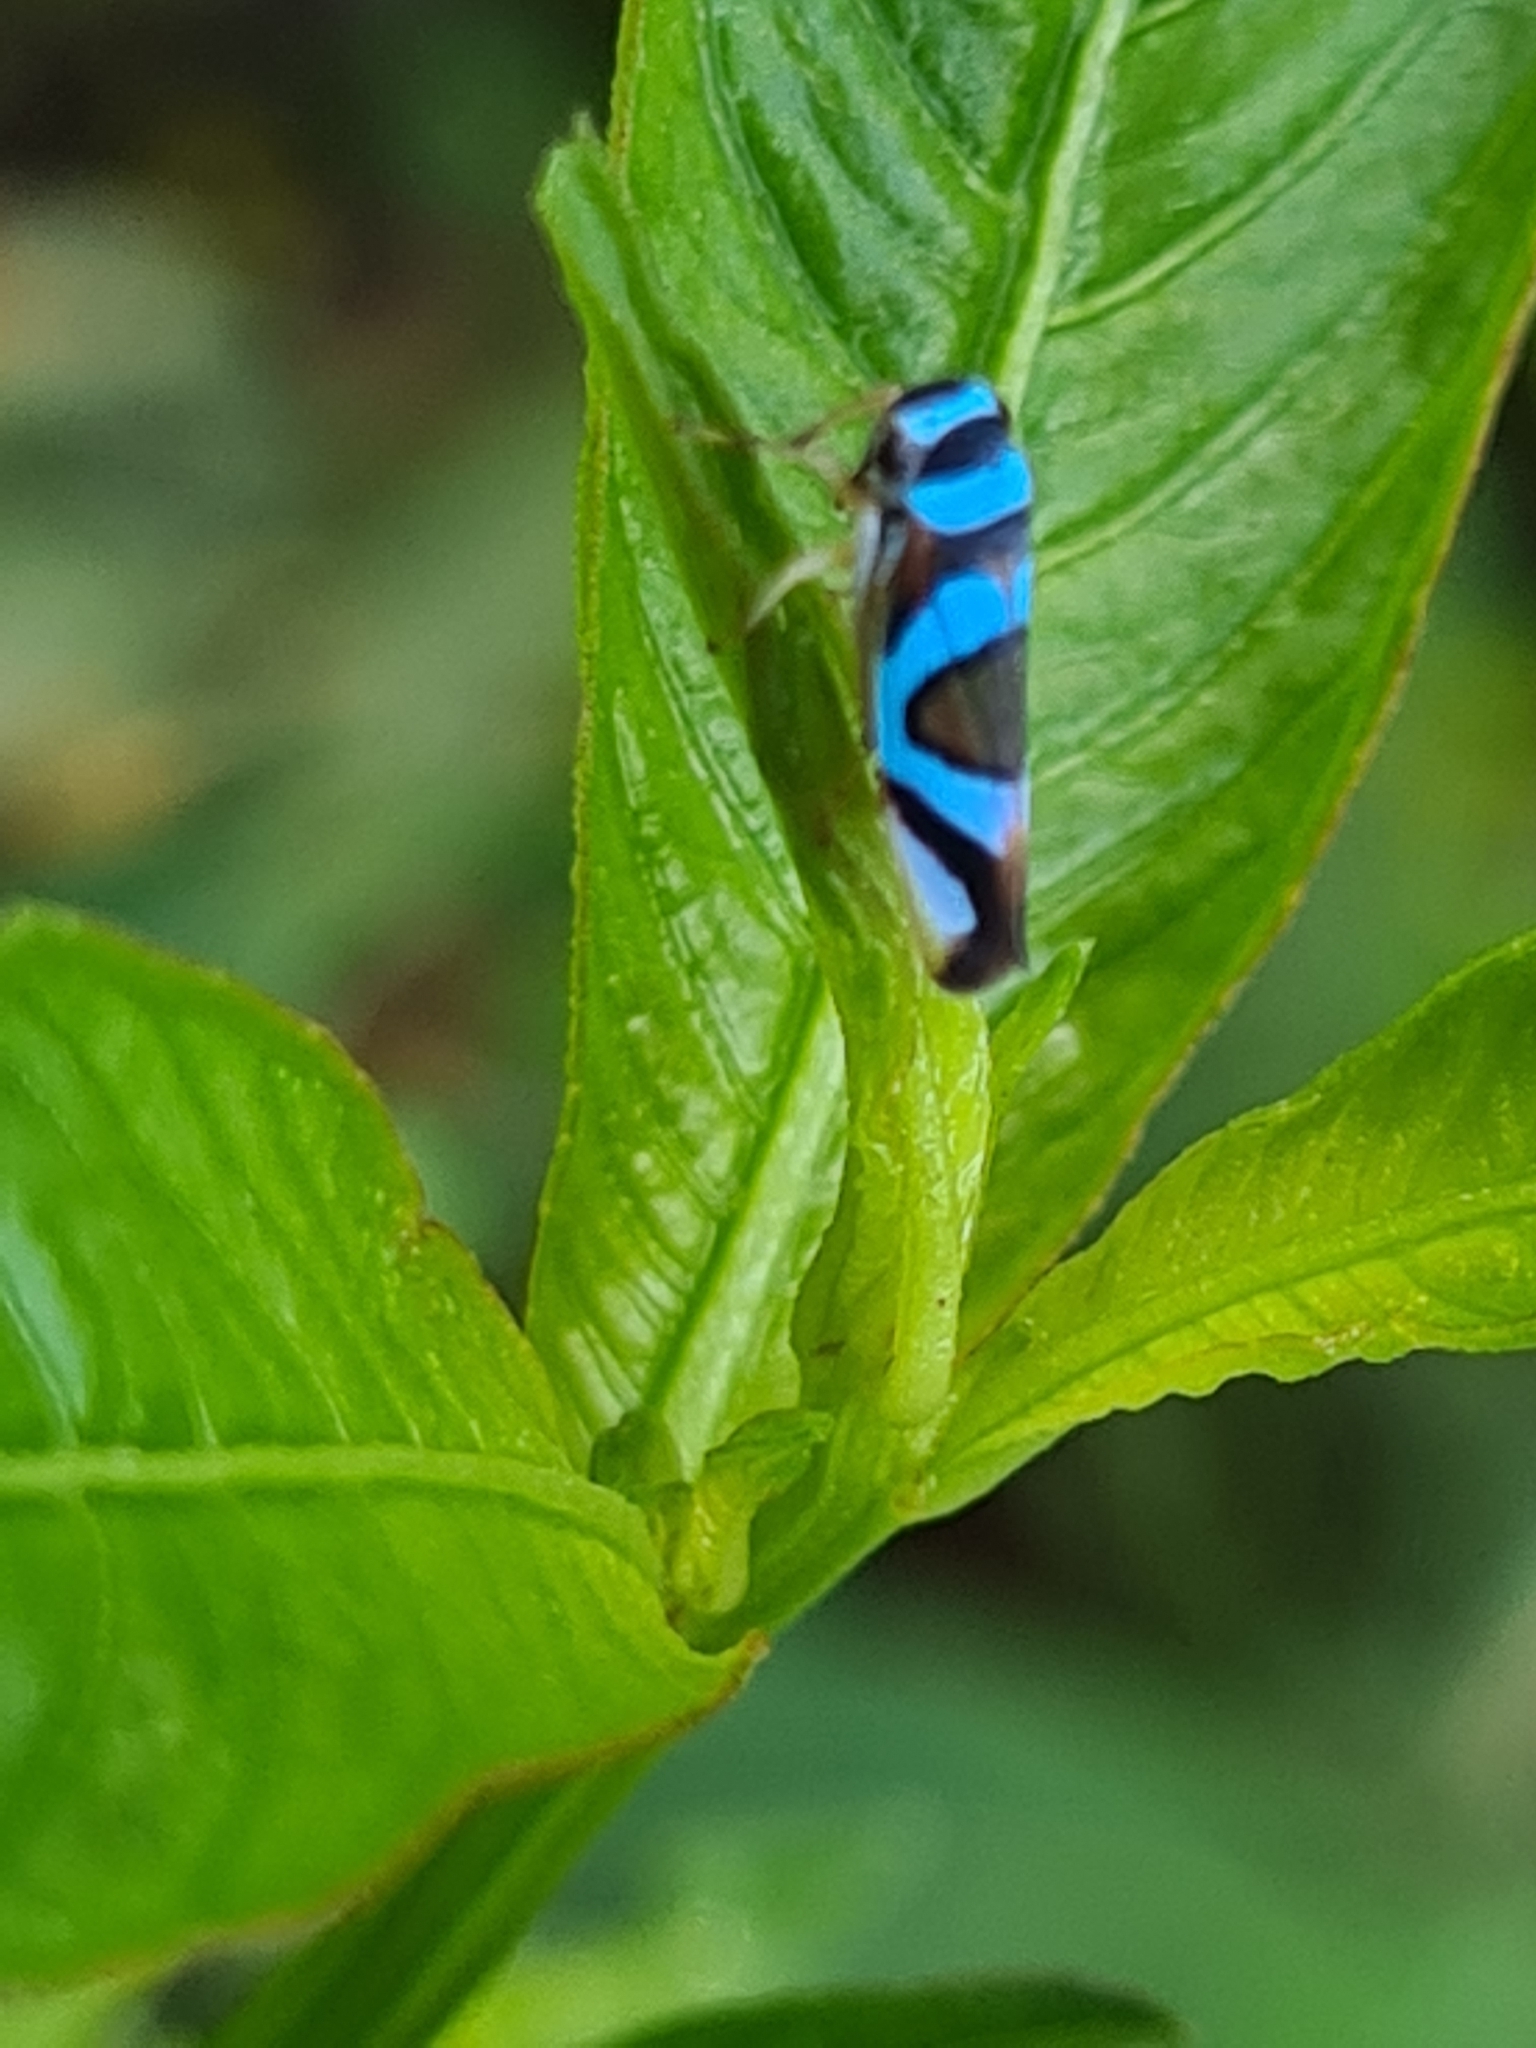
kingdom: Animalia
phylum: Arthropoda
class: Insecta
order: Hemiptera
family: Cicadellidae
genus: Macugonalia
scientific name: Macugonalia moesta
